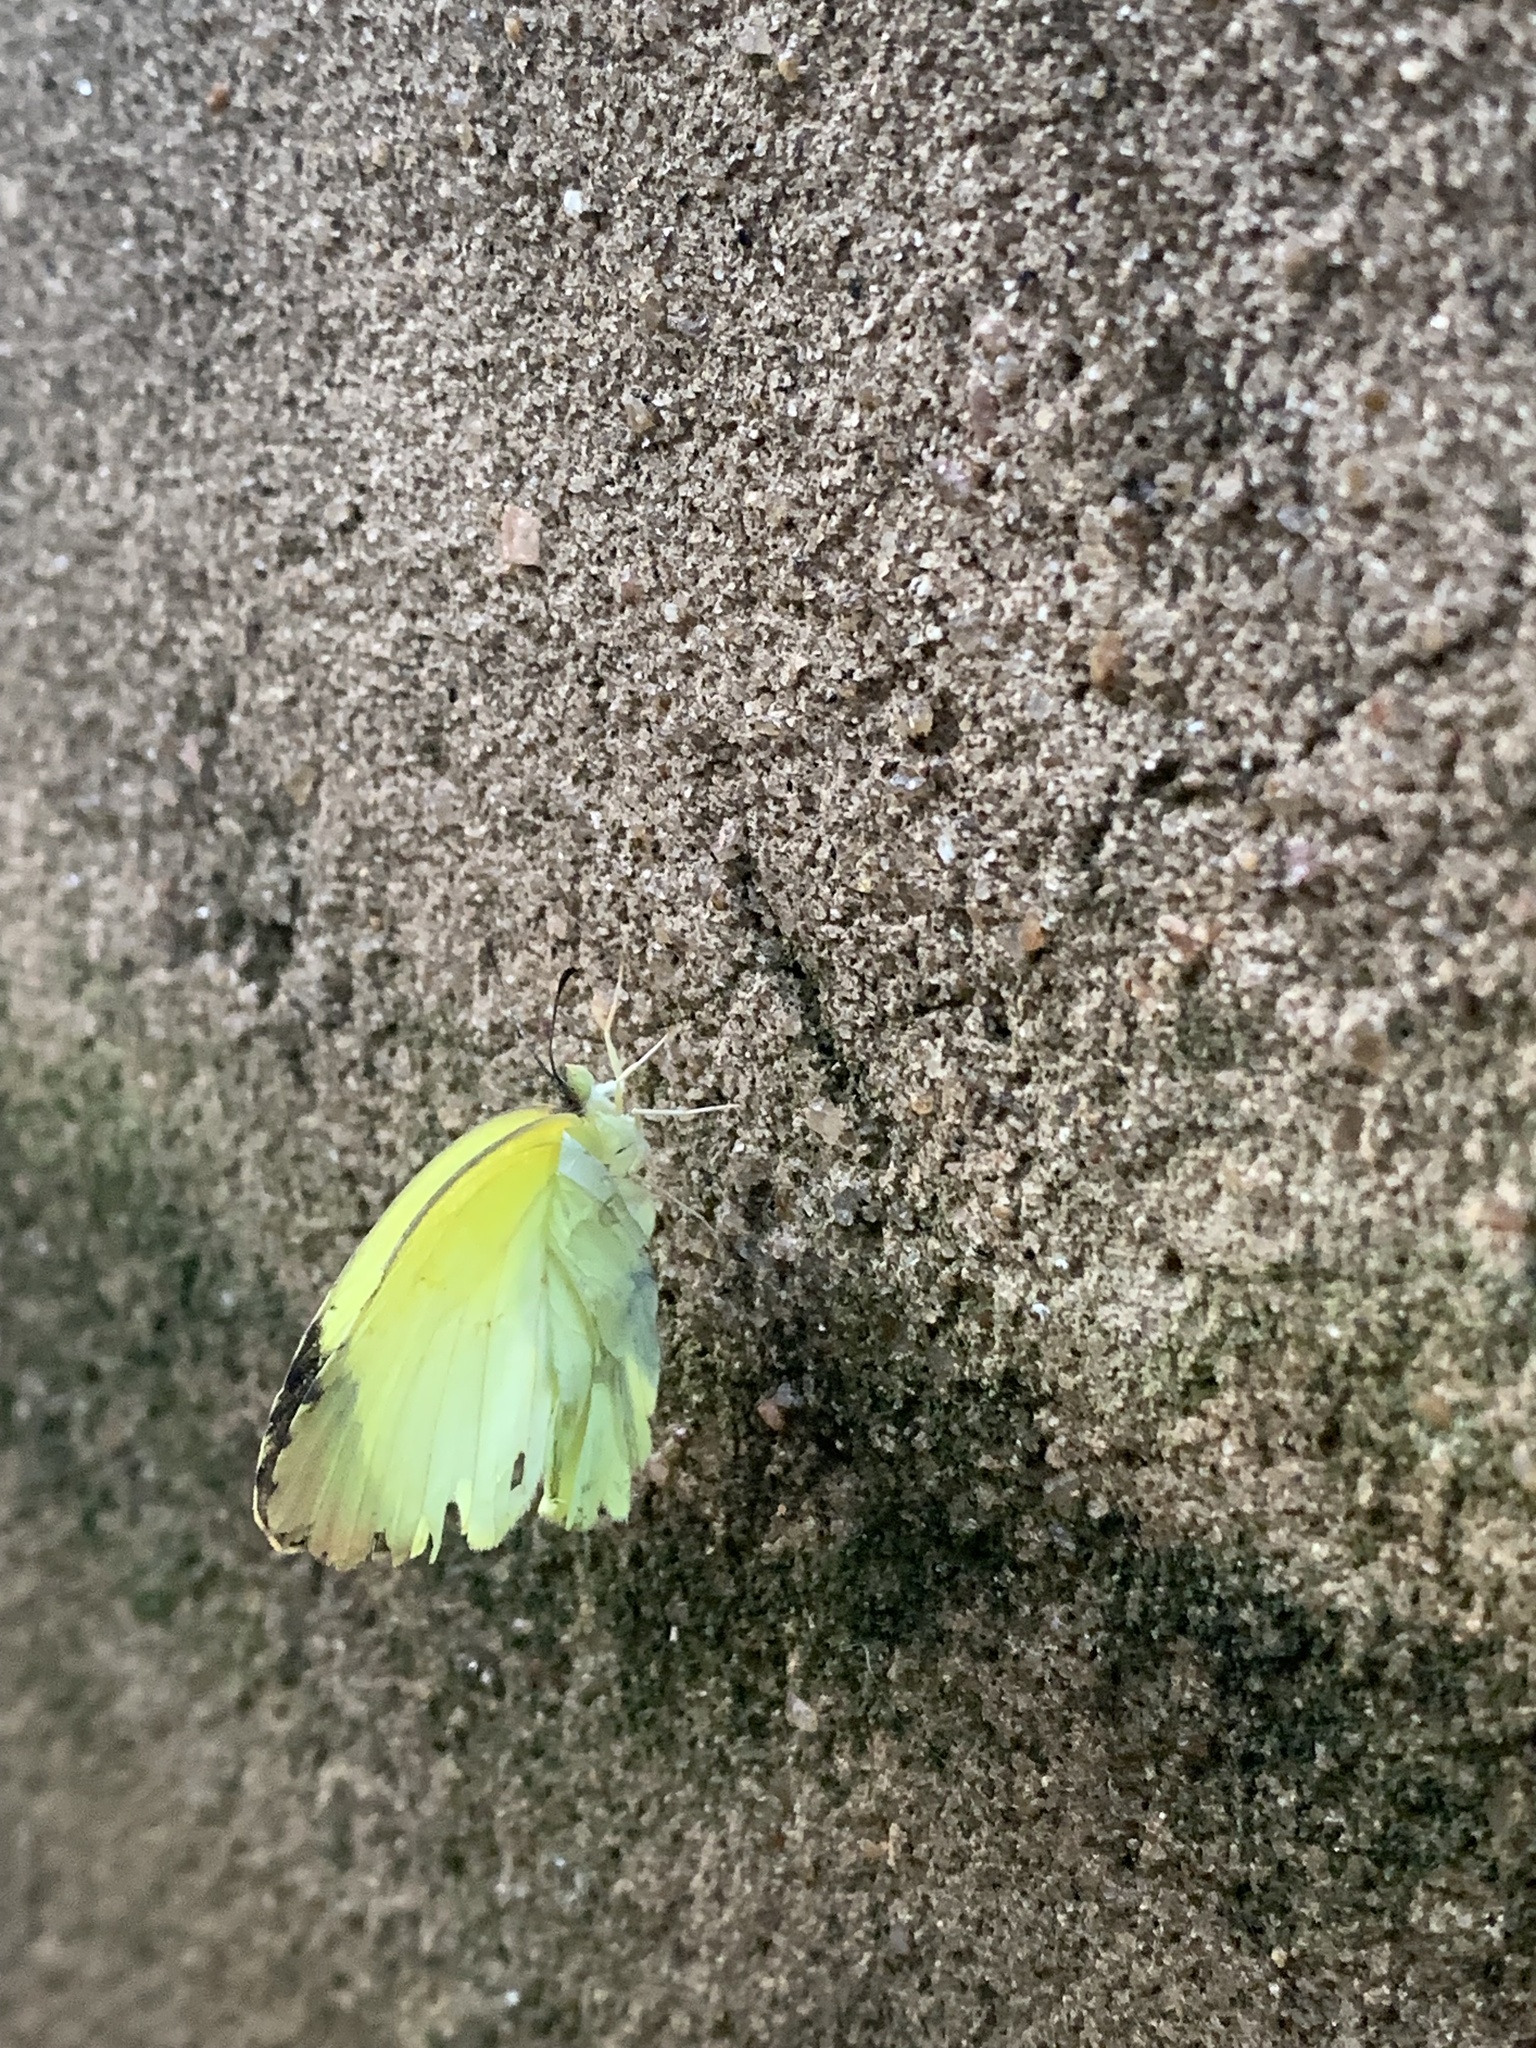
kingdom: Animalia
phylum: Arthropoda
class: Insecta
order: Lepidoptera
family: Pieridae
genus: Teriocolias
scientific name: Teriocolias
